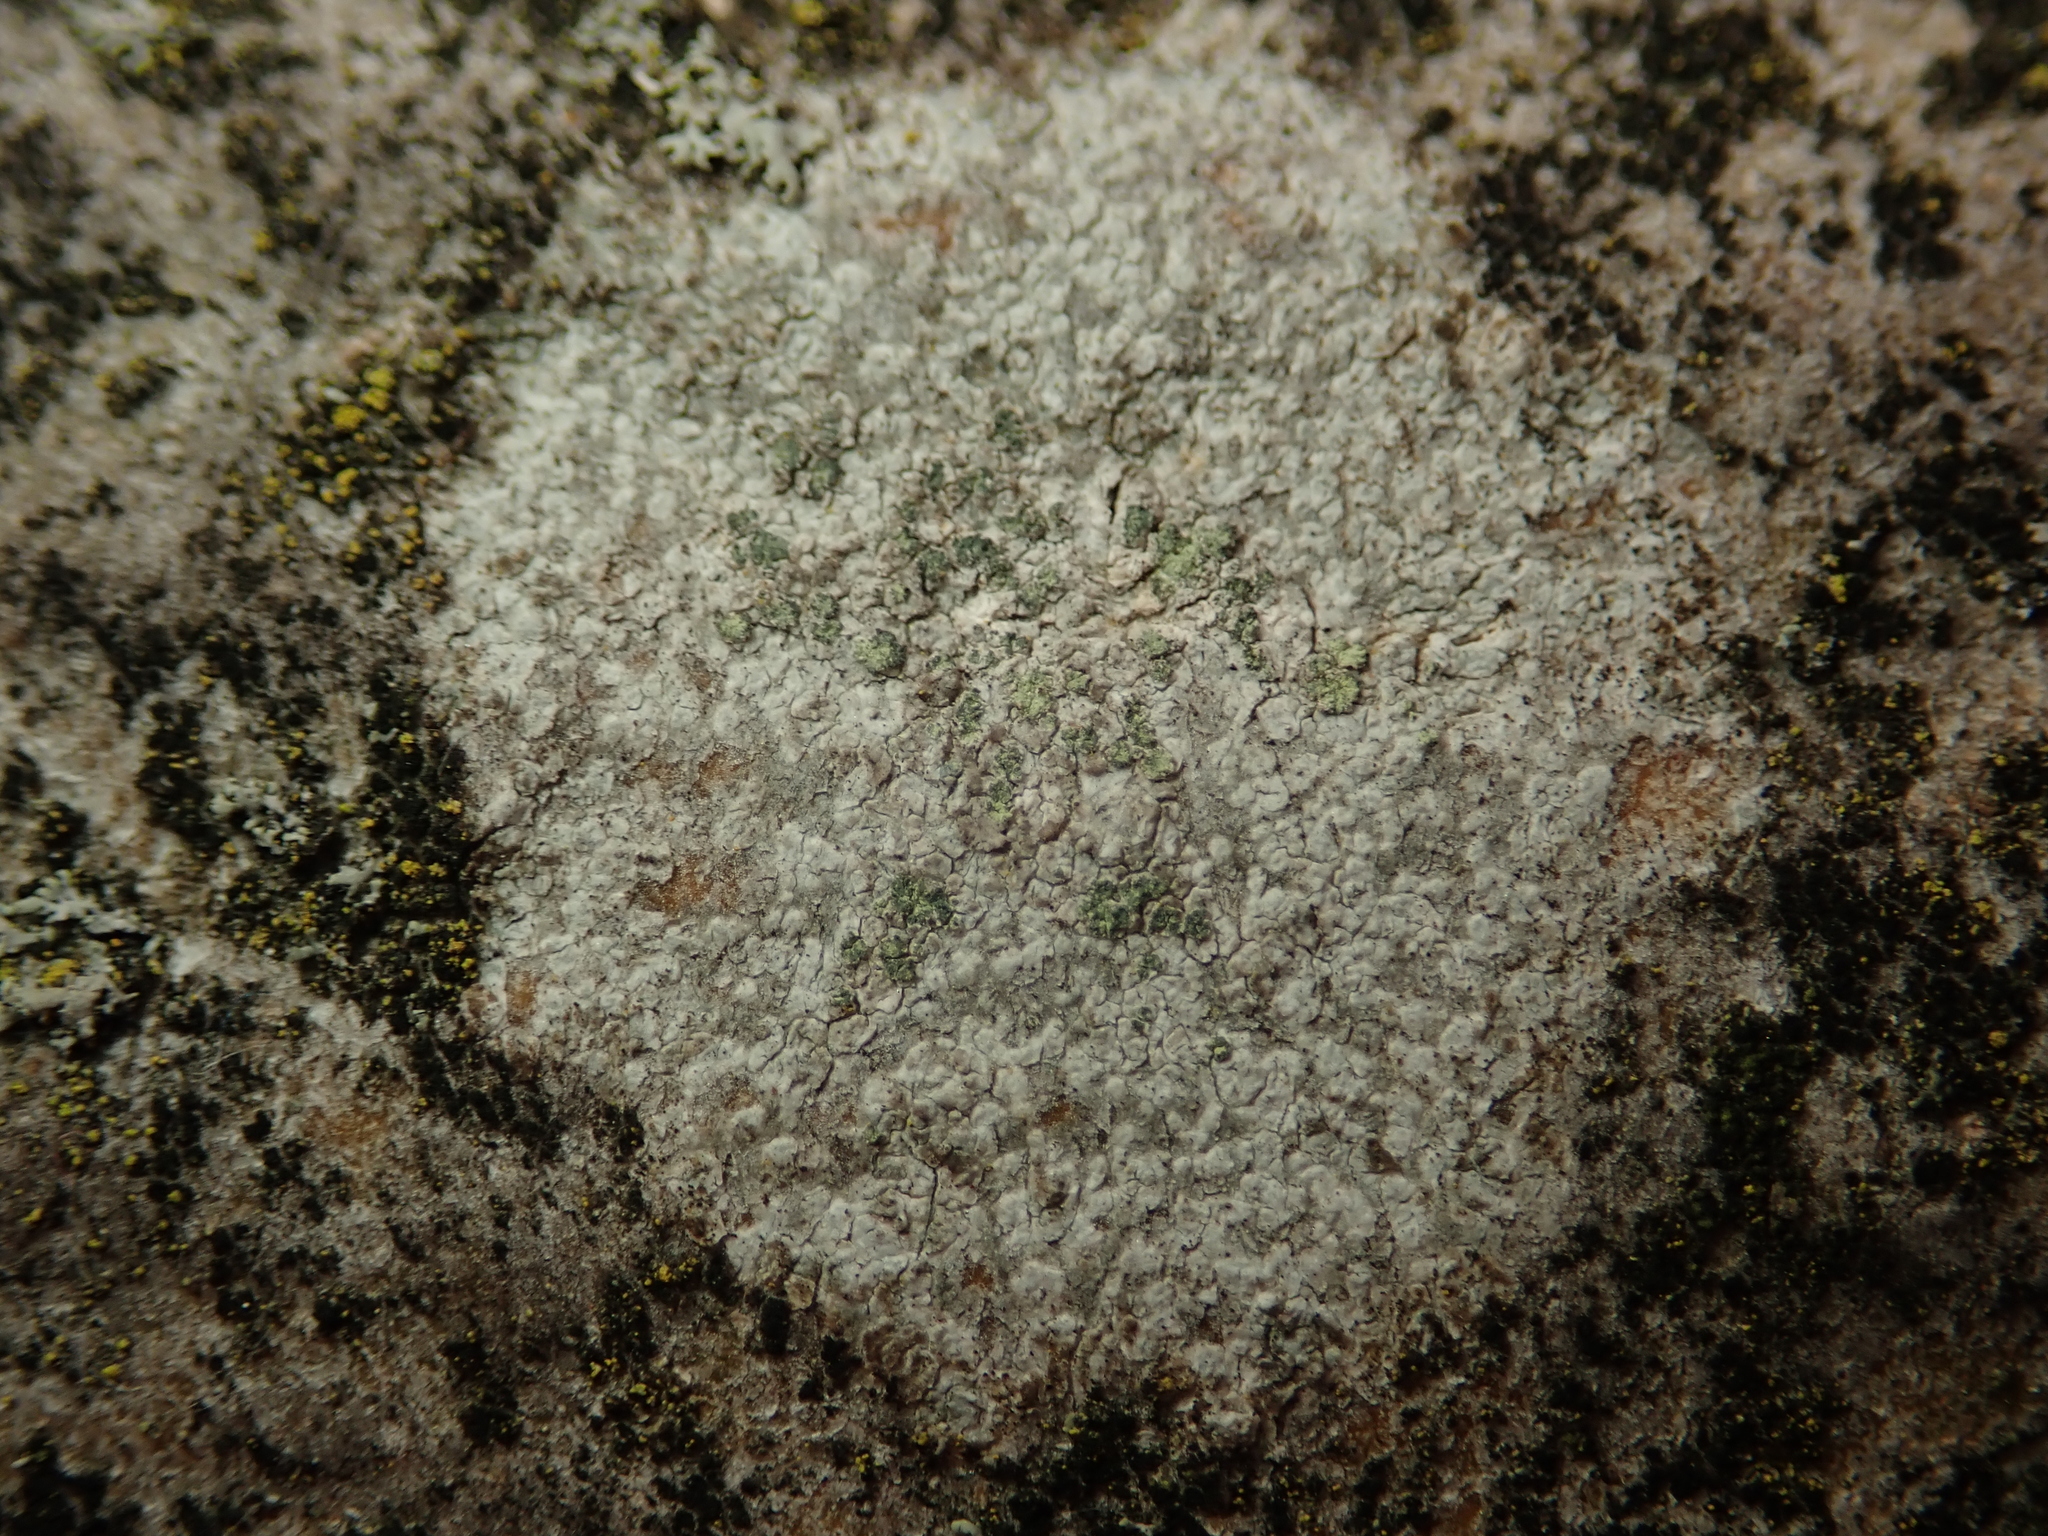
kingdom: Fungi
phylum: Ascomycota
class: Lecanoromycetes
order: Caliciales
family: Caliciaceae
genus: Buellia
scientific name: Buellia griseovirens
